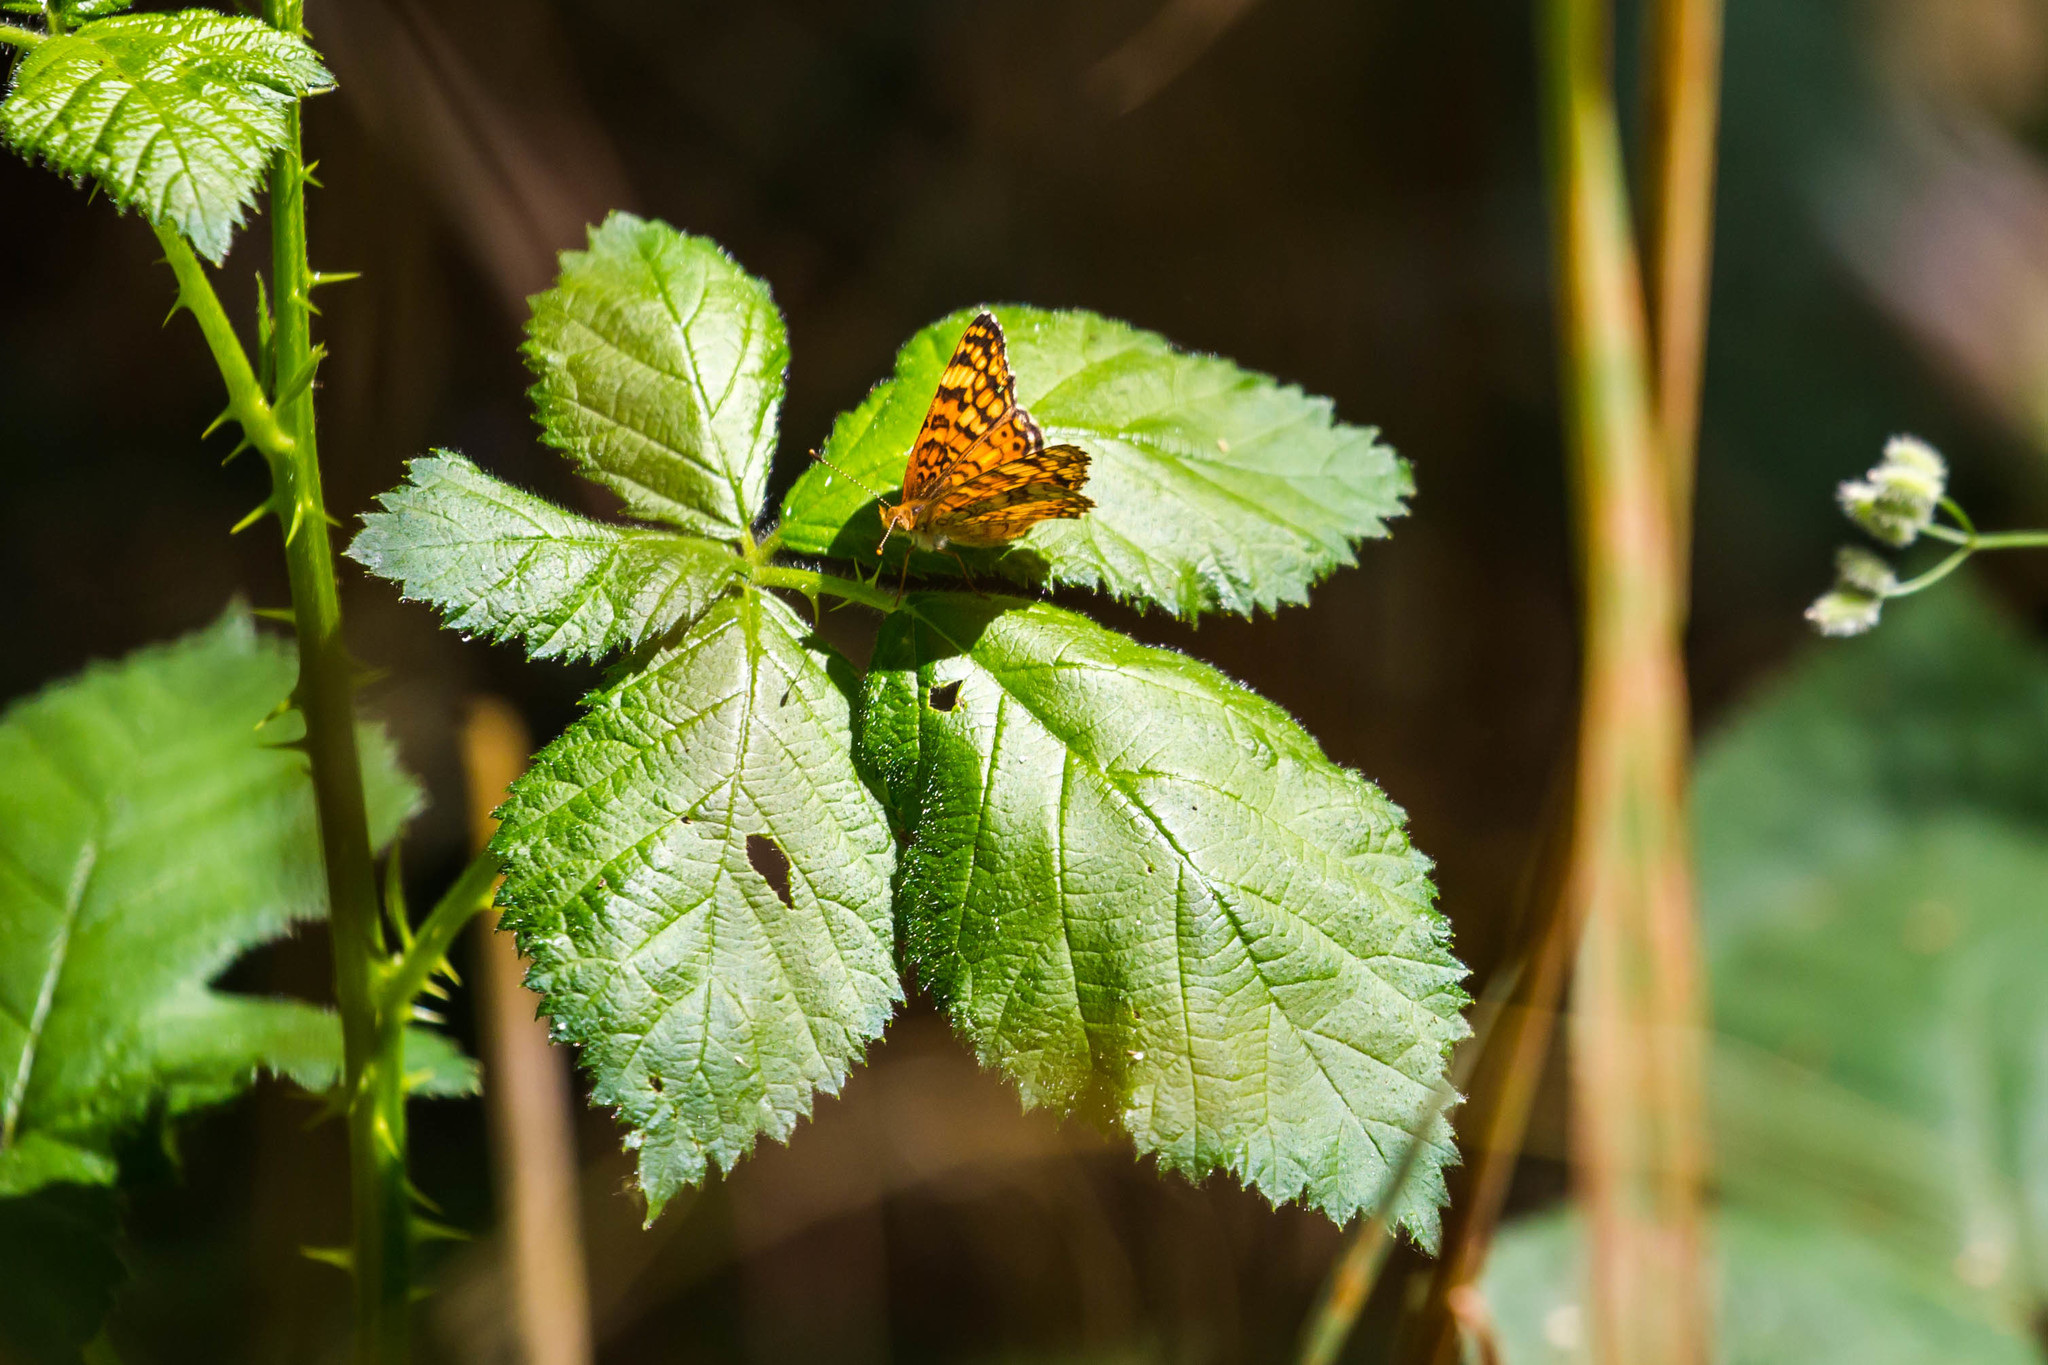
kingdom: Animalia
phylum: Arthropoda
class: Insecta
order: Lepidoptera
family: Nymphalidae
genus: Eresia
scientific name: Eresia aveyrona
